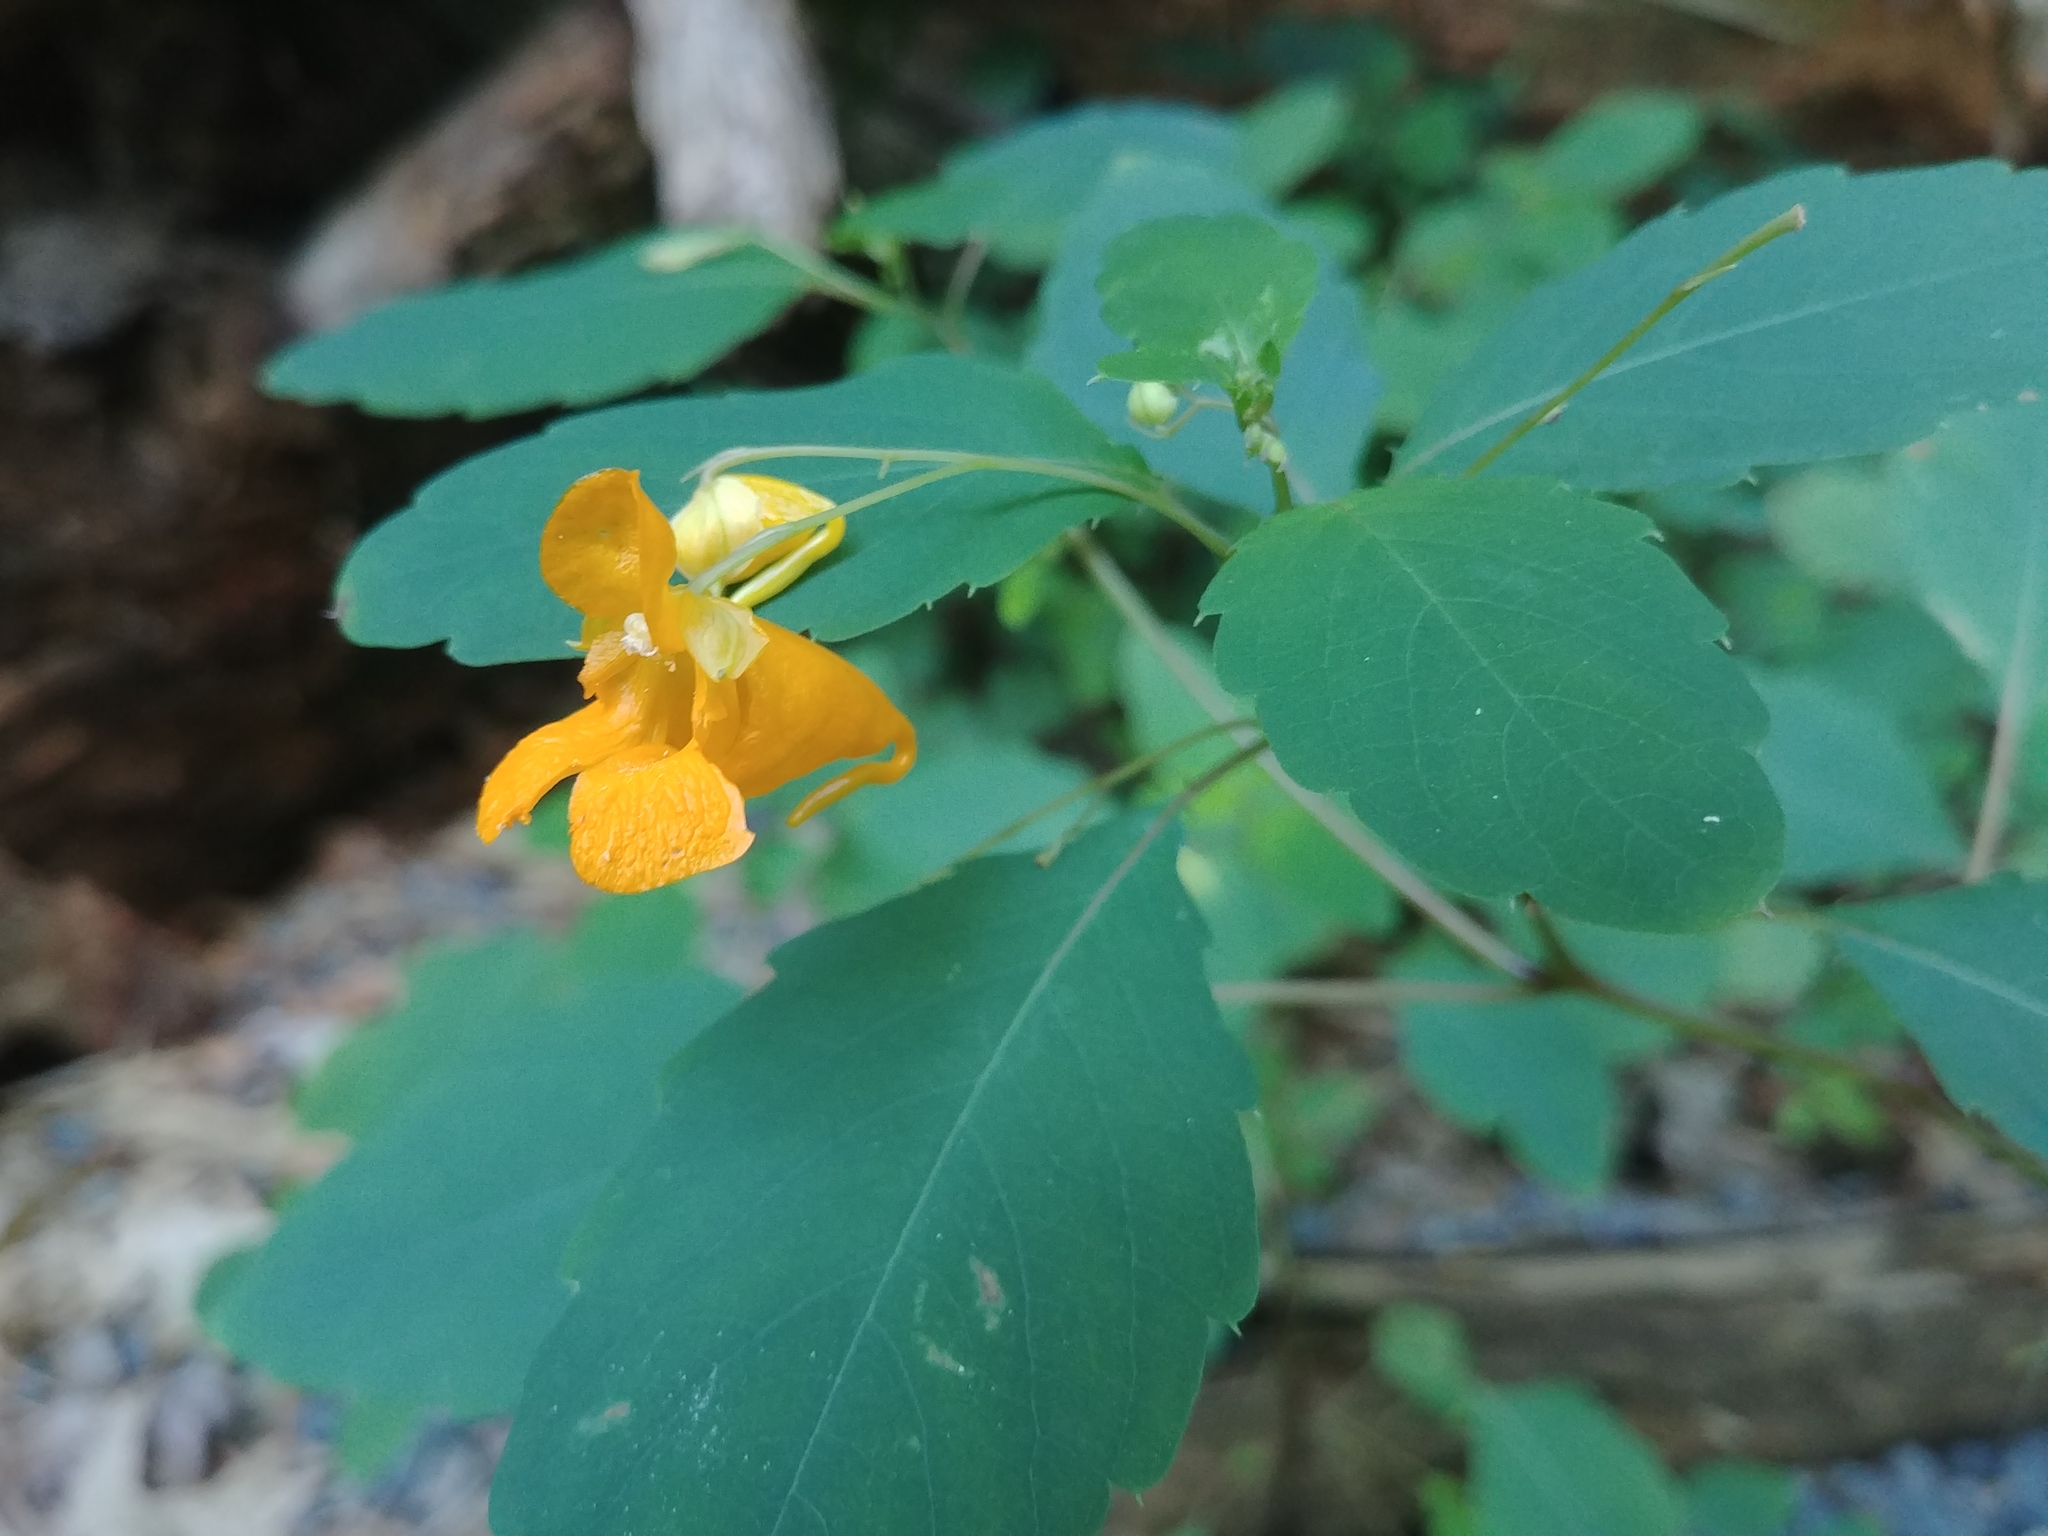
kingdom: Plantae
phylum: Tracheophyta
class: Magnoliopsida
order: Ericales
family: Balsaminaceae
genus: Impatiens
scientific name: Impatiens capensis
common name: Orange balsam
